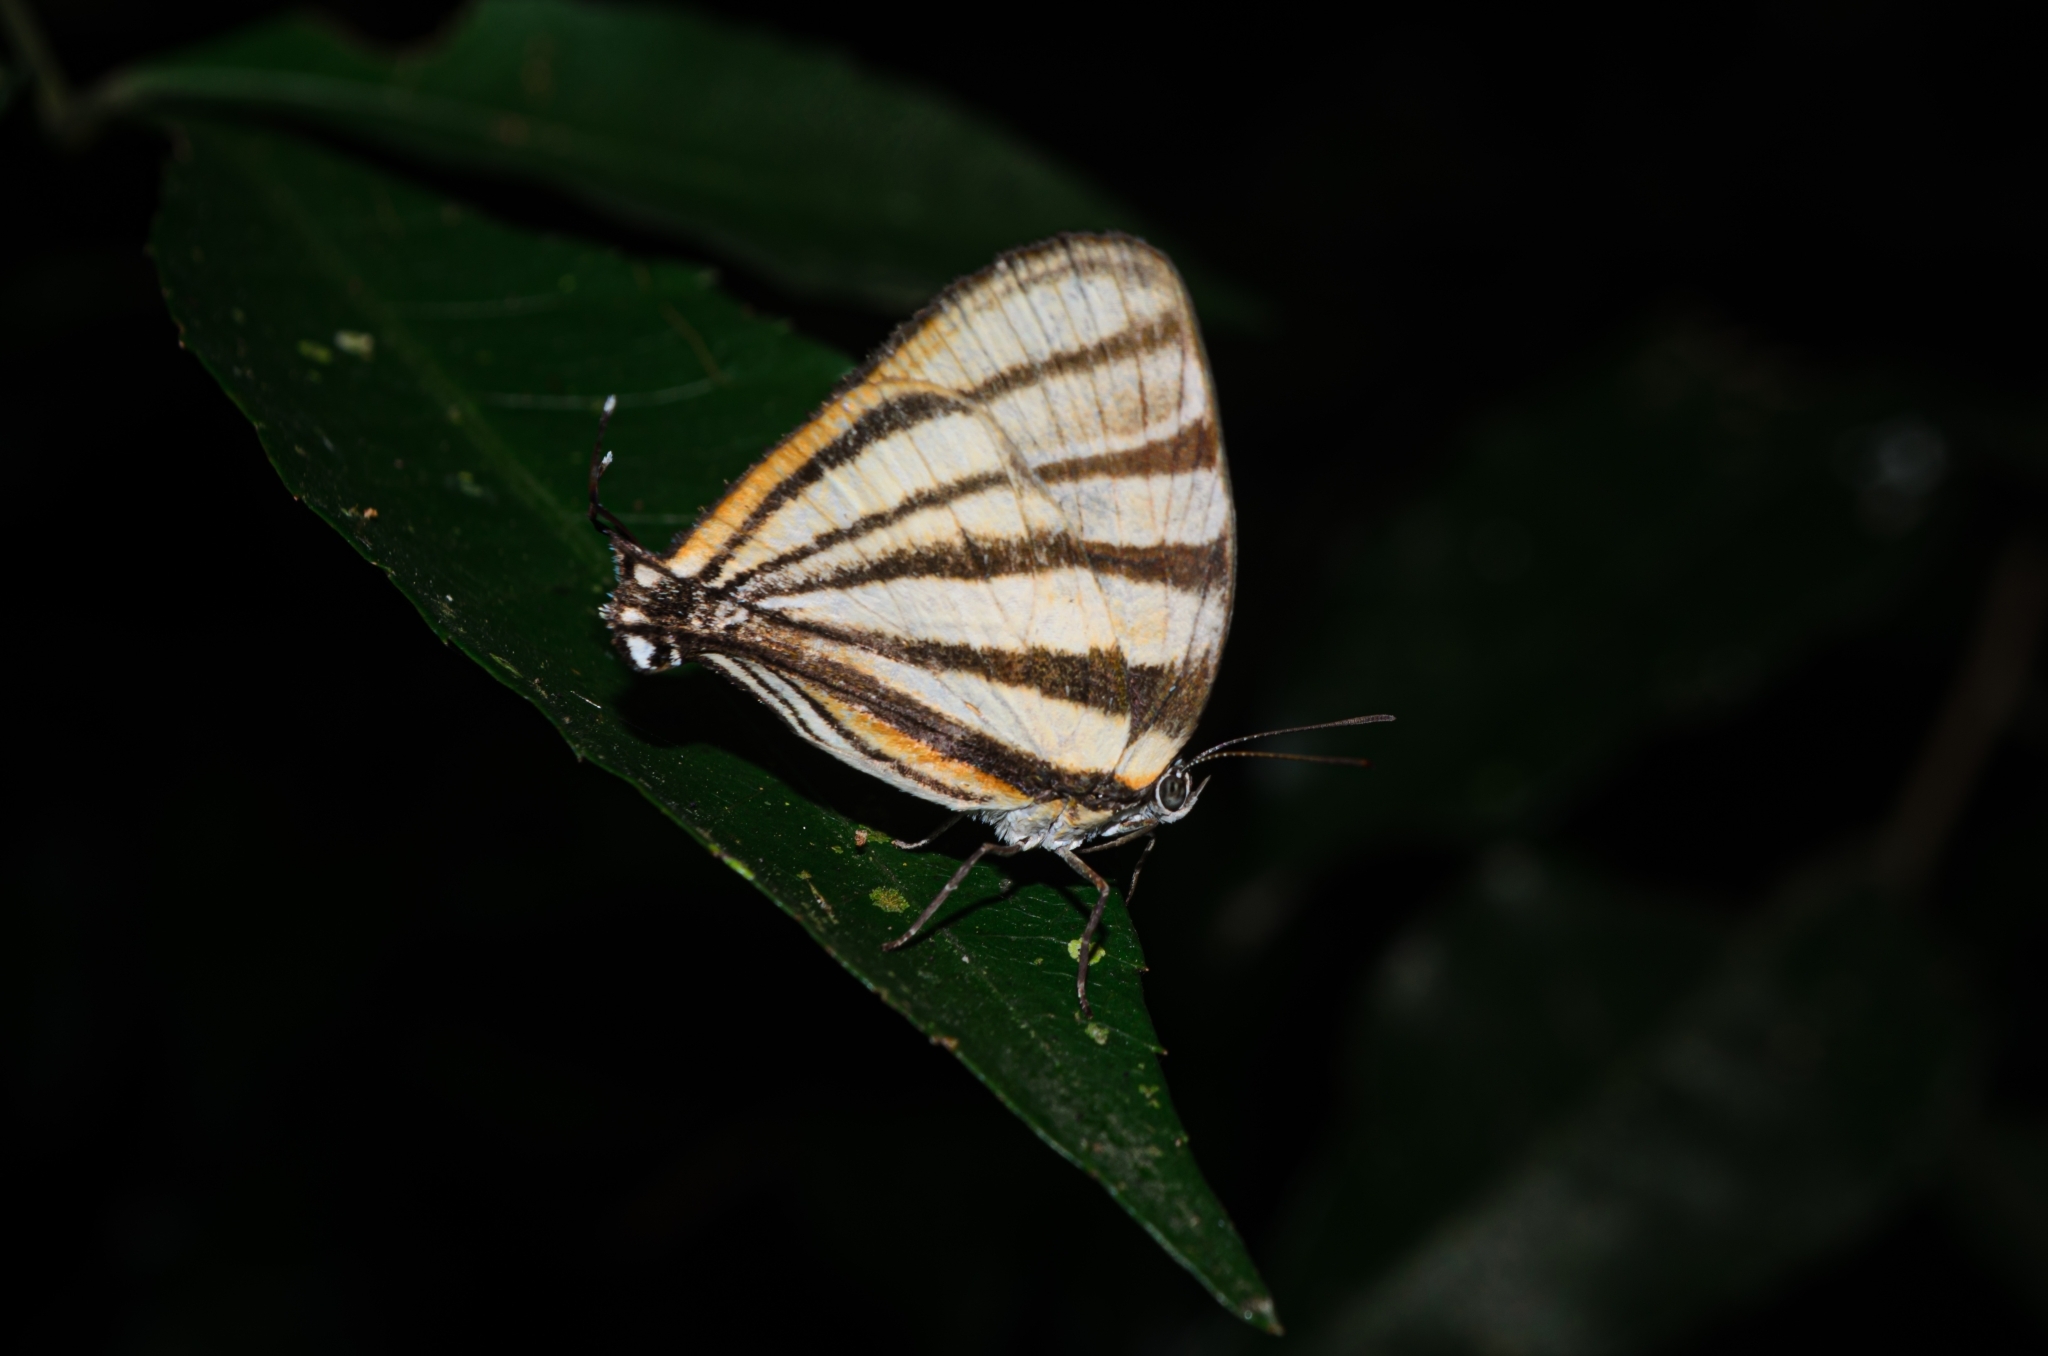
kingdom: Animalia
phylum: Arthropoda
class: Insecta
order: Lepidoptera
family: Lycaenidae
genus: Arawacus
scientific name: Arawacus separata
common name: Separated stripestreak
